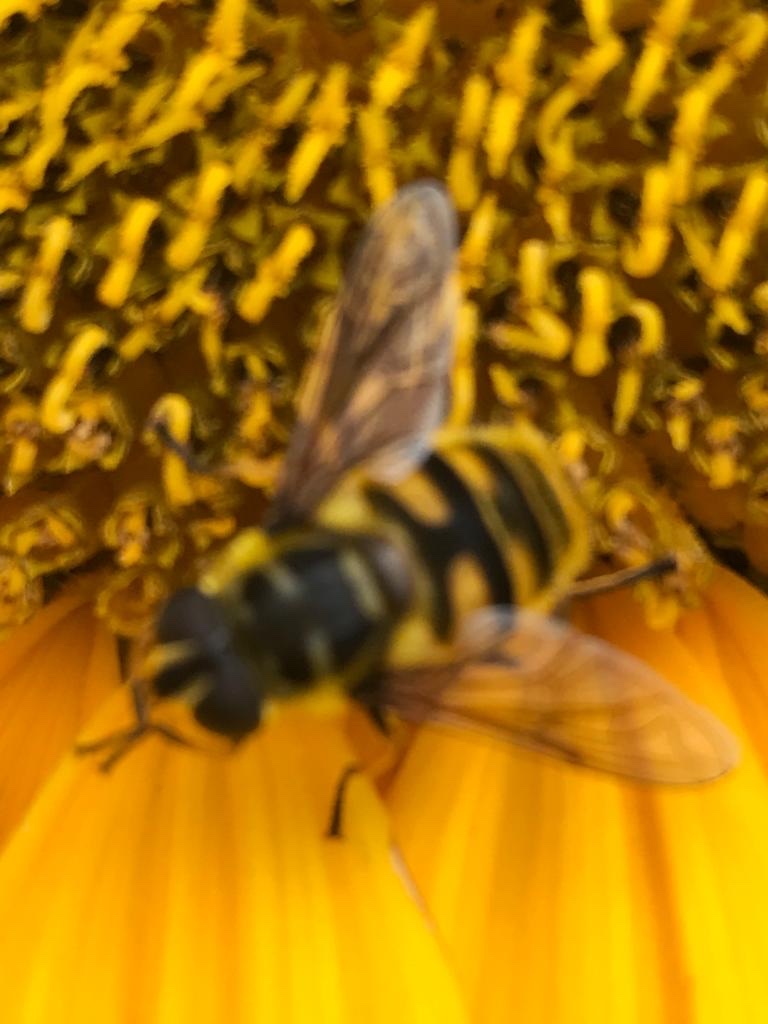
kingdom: Animalia
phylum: Arthropoda
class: Insecta
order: Diptera
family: Syrphidae
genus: Myathropa
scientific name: Myathropa florea
